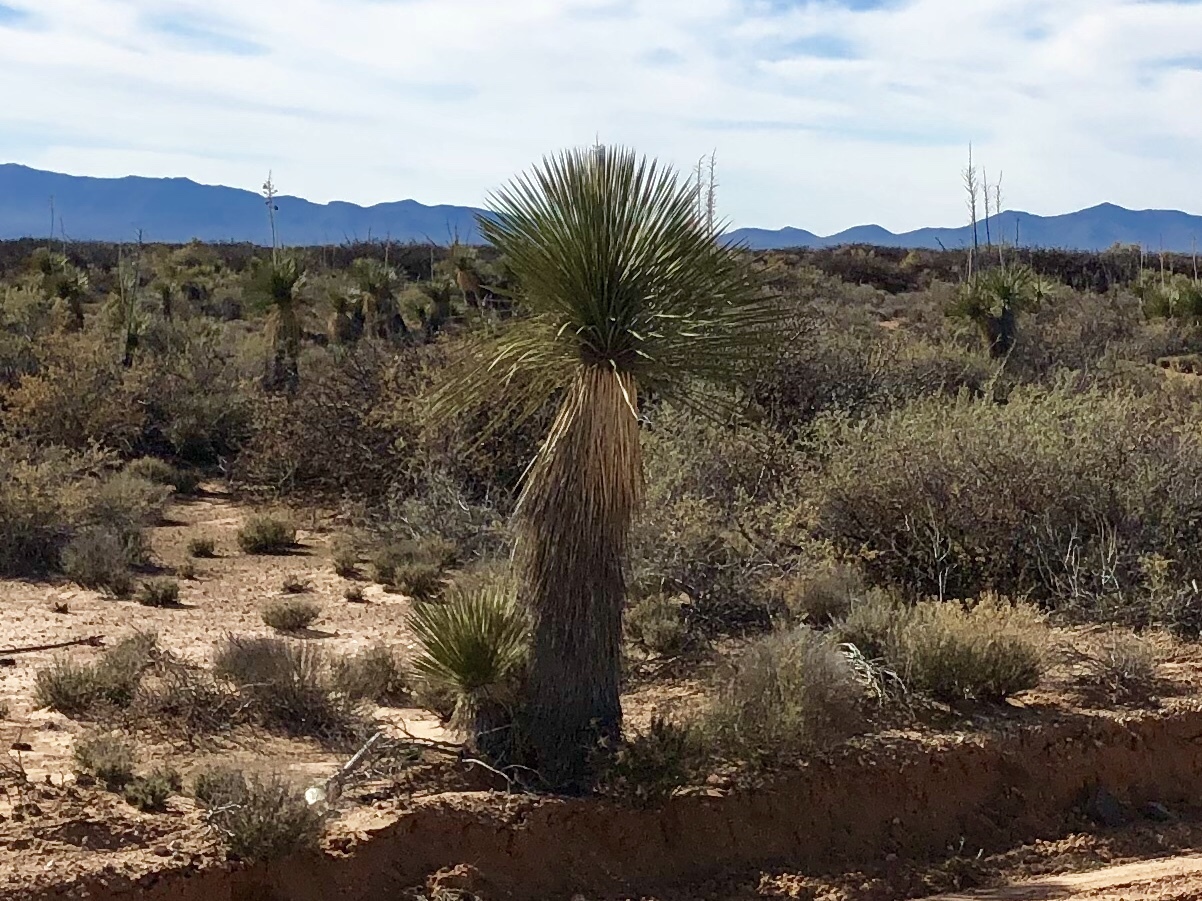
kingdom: Plantae
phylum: Tracheophyta
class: Liliopsida
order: Asparagales
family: Asparagaceae
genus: Yucca
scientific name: Yucca elata
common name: Palmella
